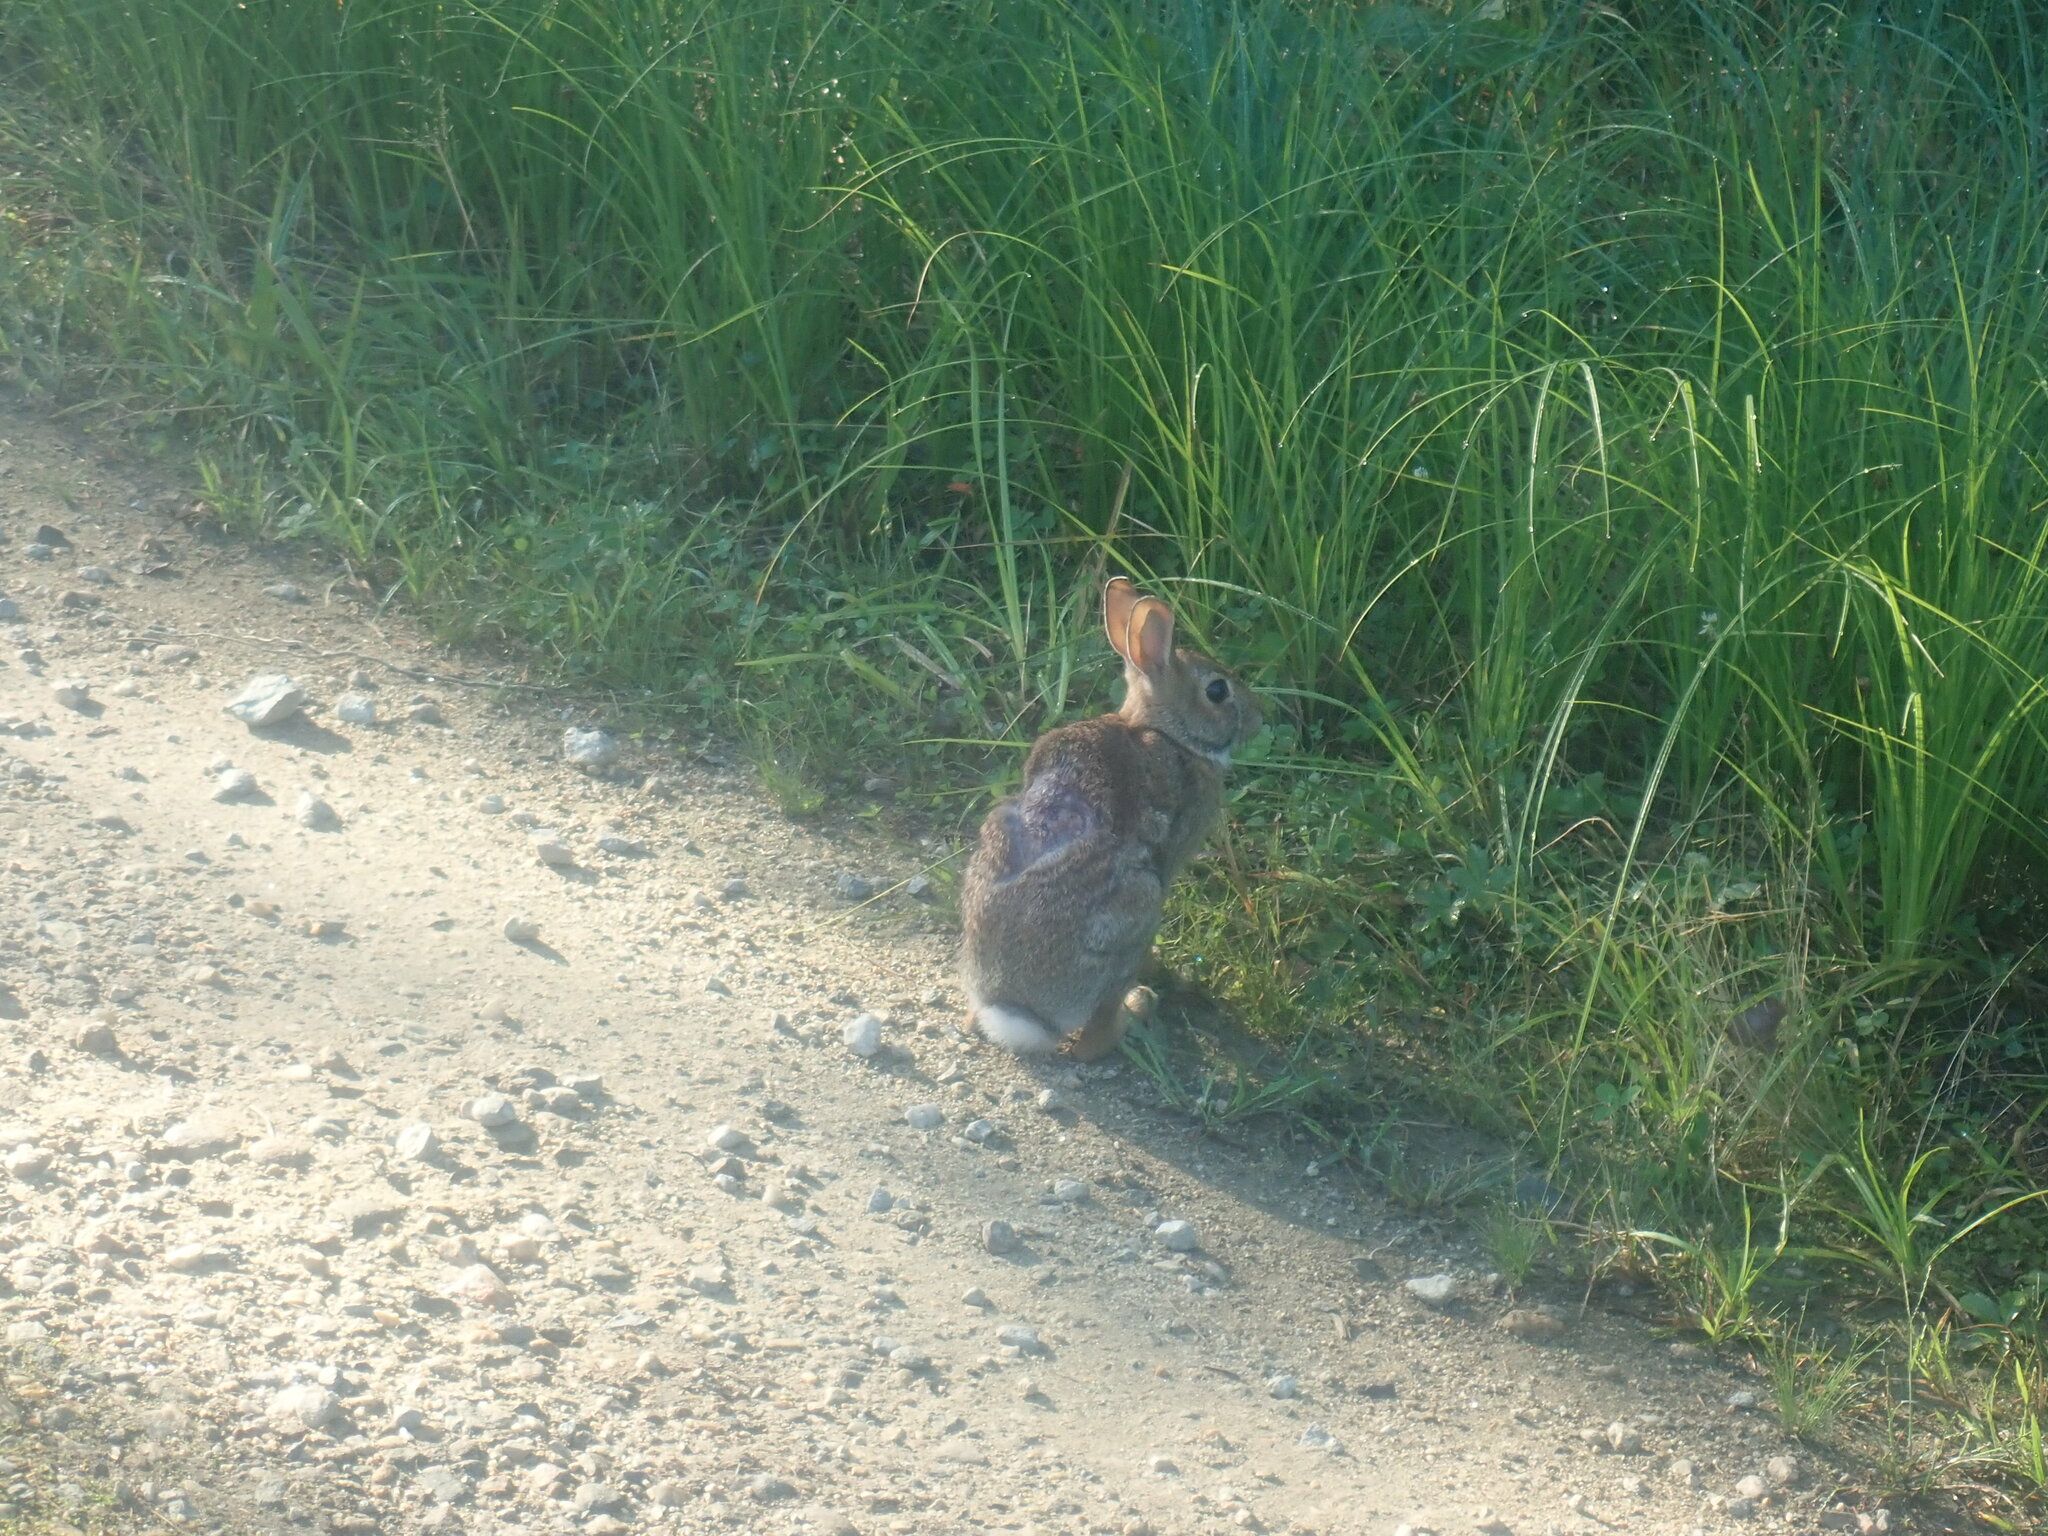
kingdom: Animalia
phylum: Chordata
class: Mammalia
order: Lagomorpha
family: Leporidae
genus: Sylvilagus
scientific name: Sylvilagus floridanus
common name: Eastern cottontail
